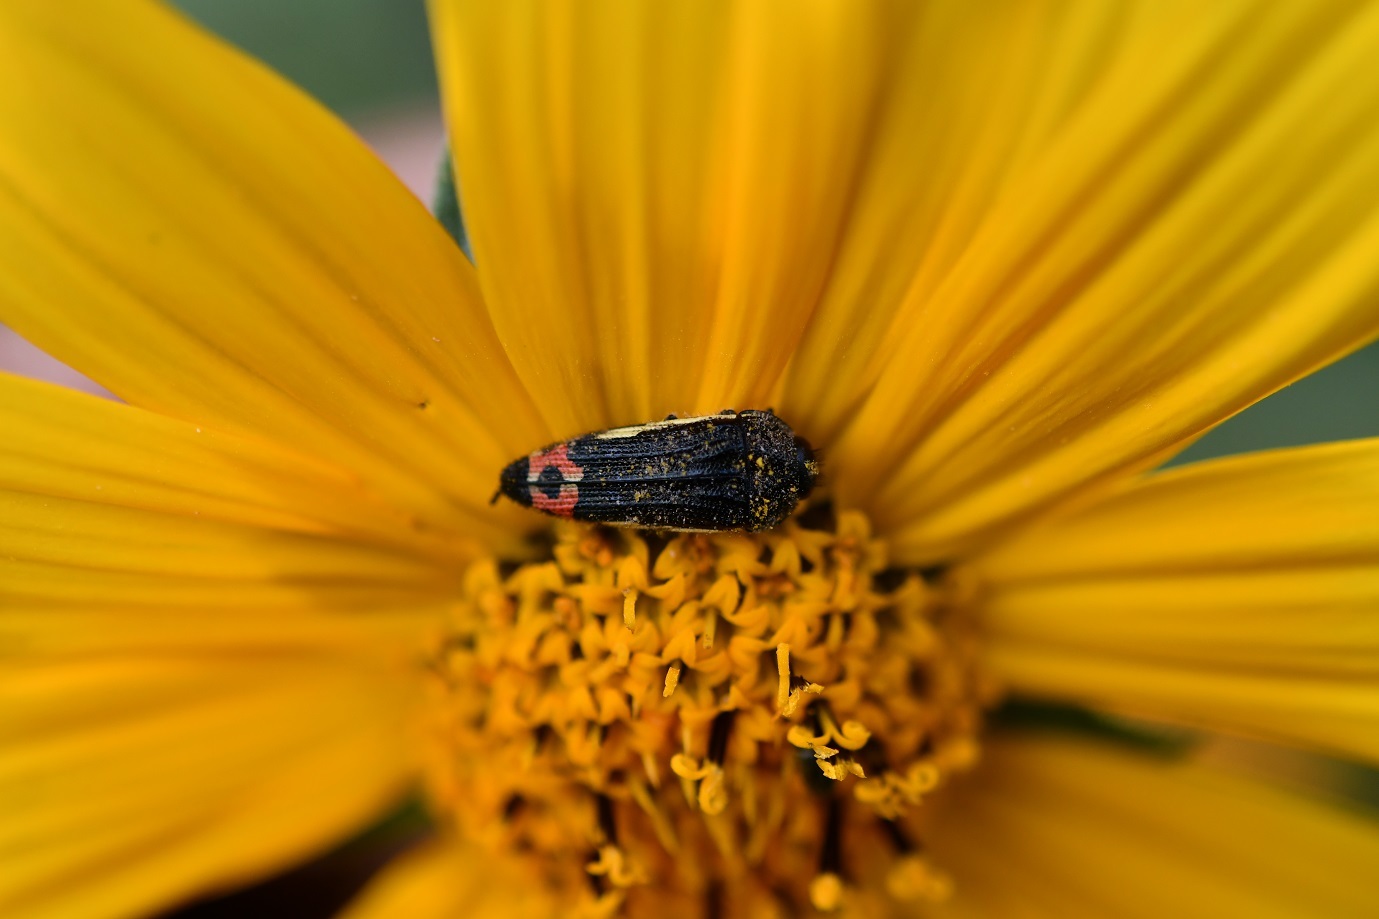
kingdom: Animalia
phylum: Arthropoda
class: Insecta
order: Coleoptera
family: Buprestidae
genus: Acmaeodera
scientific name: Acmaeodera flavomarginata
